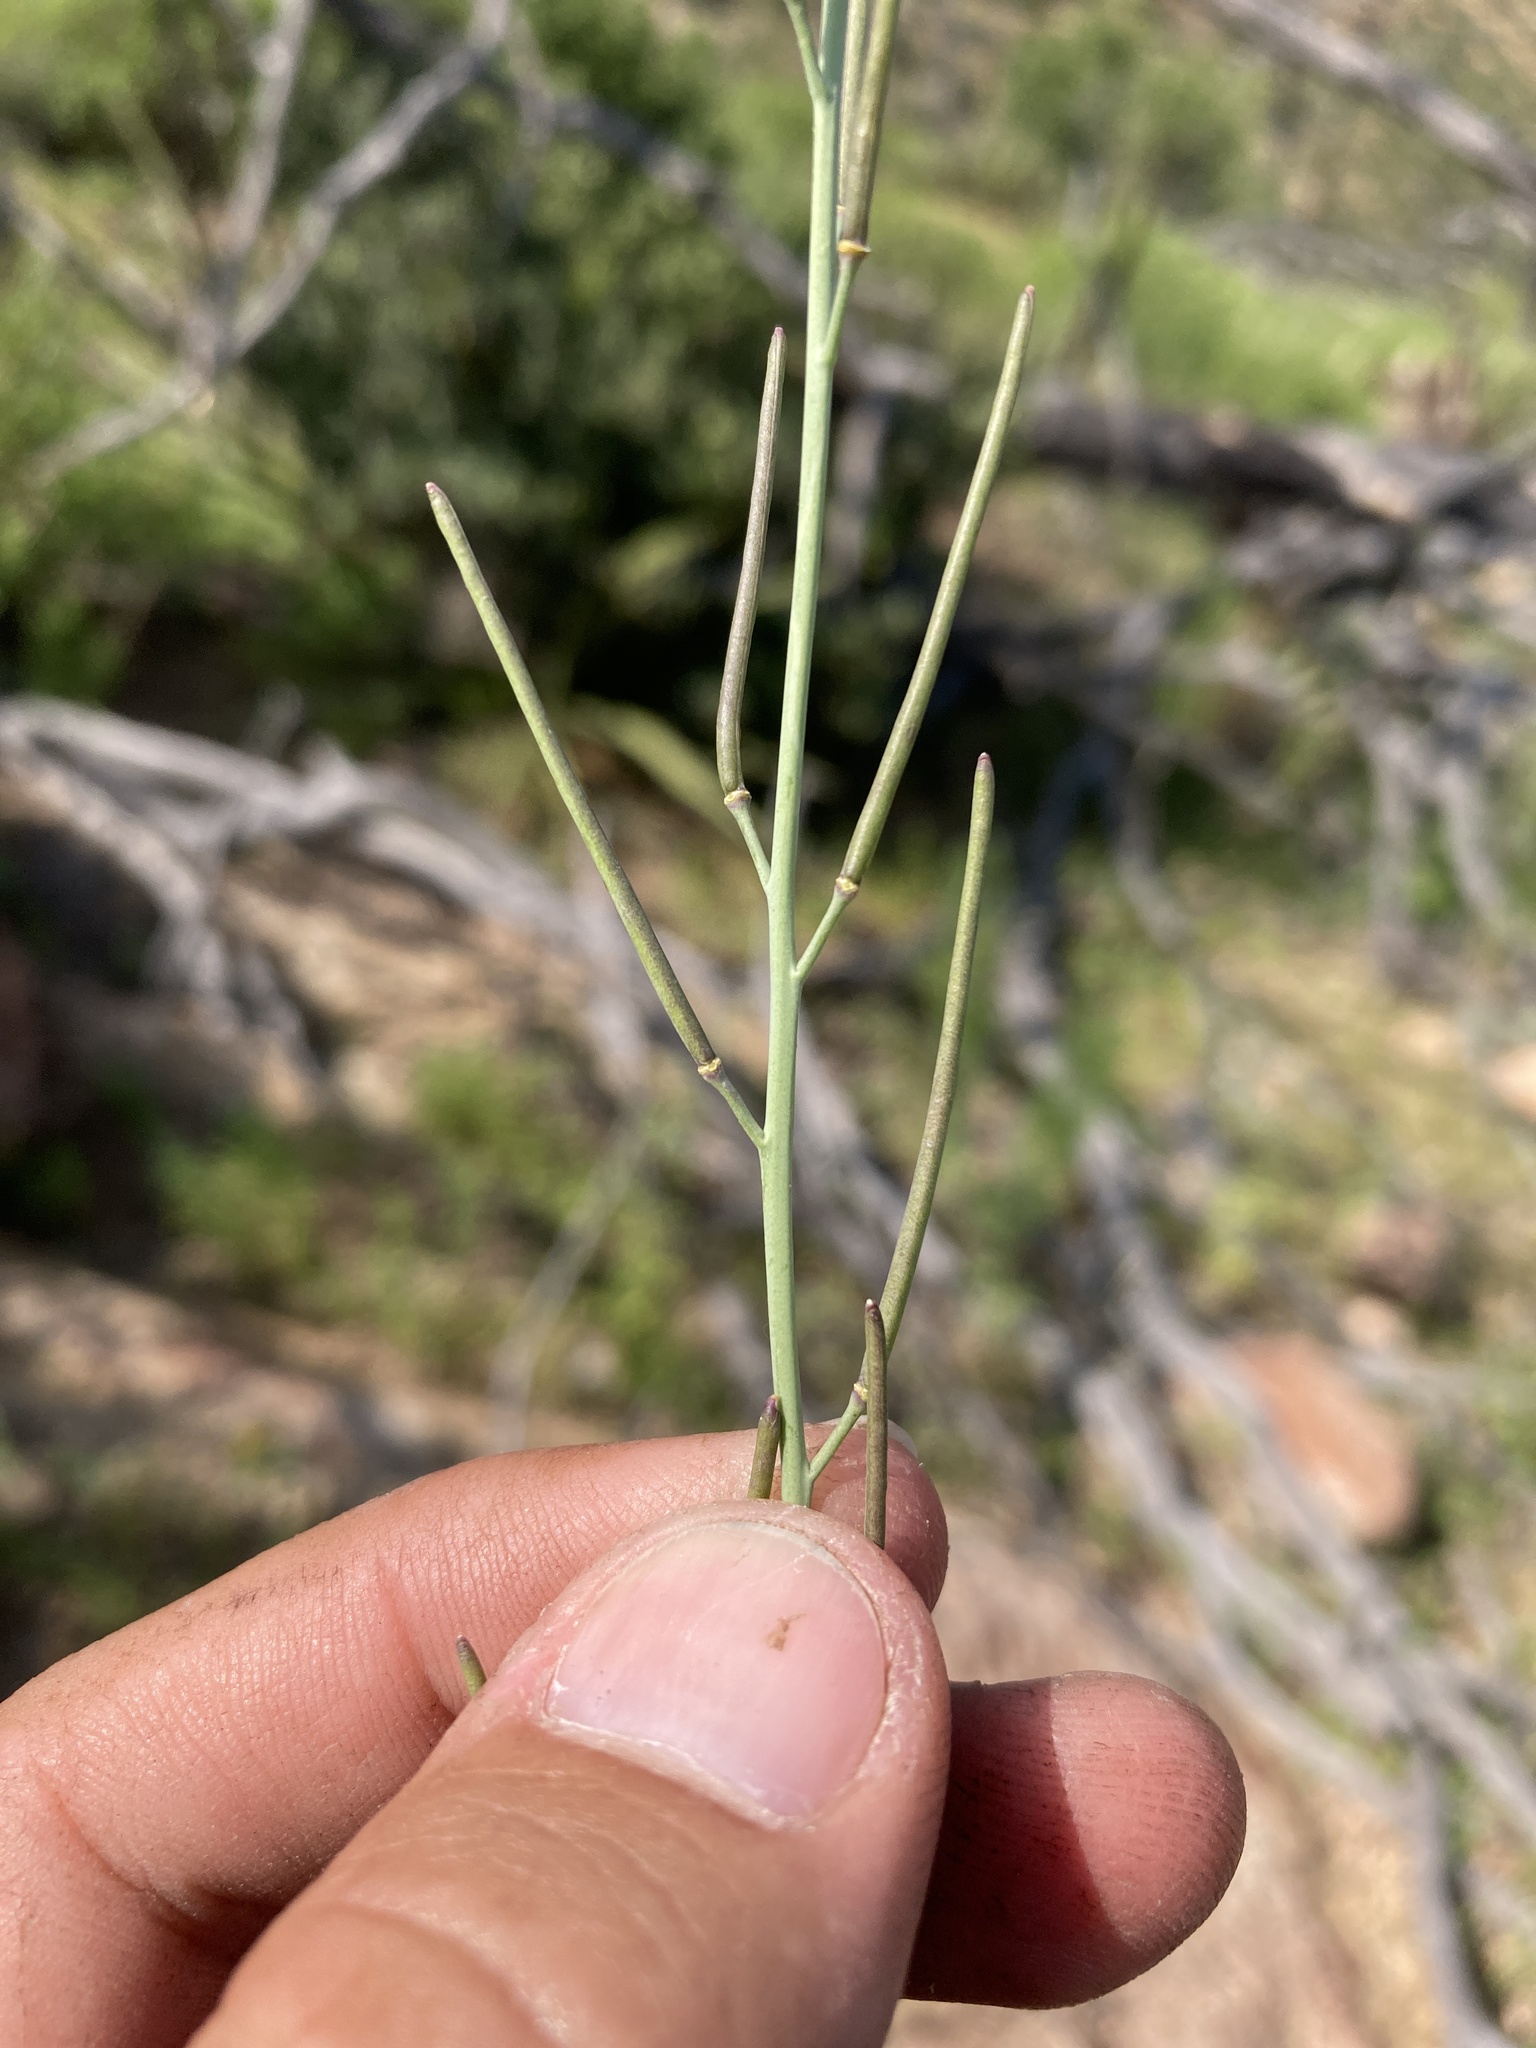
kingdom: Plantae
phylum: Tracheophyta
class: Magnoliopsida
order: Brassicales
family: Brassicaceae
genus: Pennellia
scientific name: Pennellia micrantha
